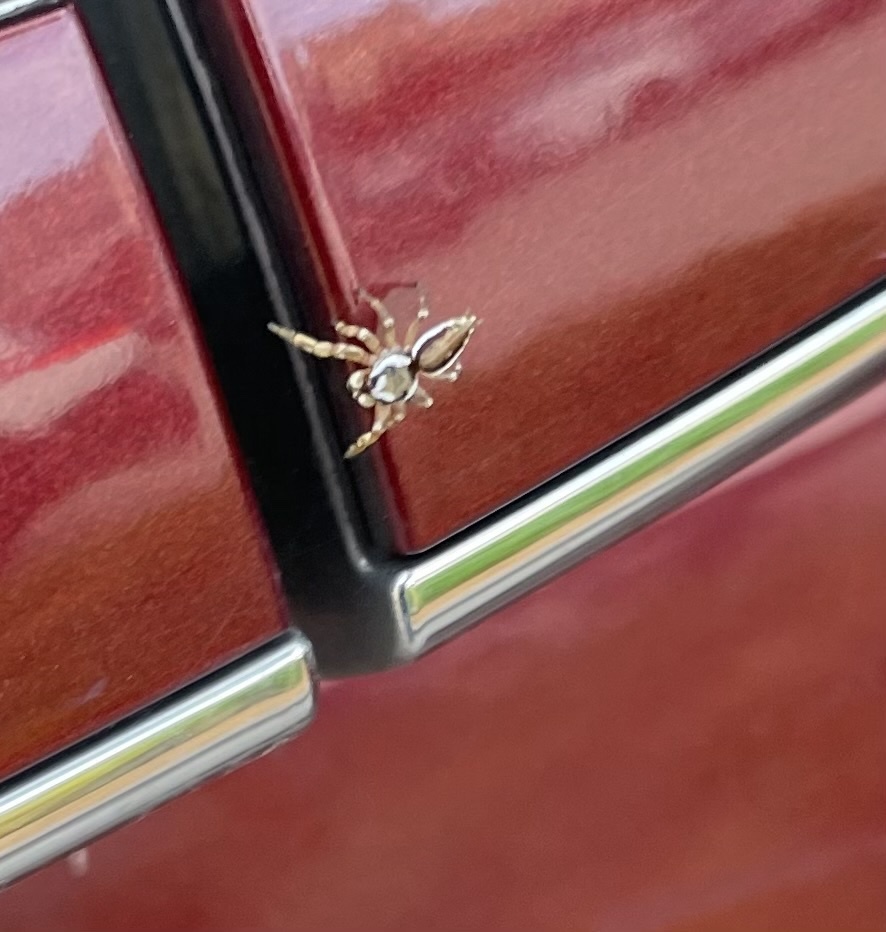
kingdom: Animalia
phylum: Arthropoda
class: Arachnida
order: Araneae
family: Salticidae
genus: Pelegrina
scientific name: Pelegrina pervaga
